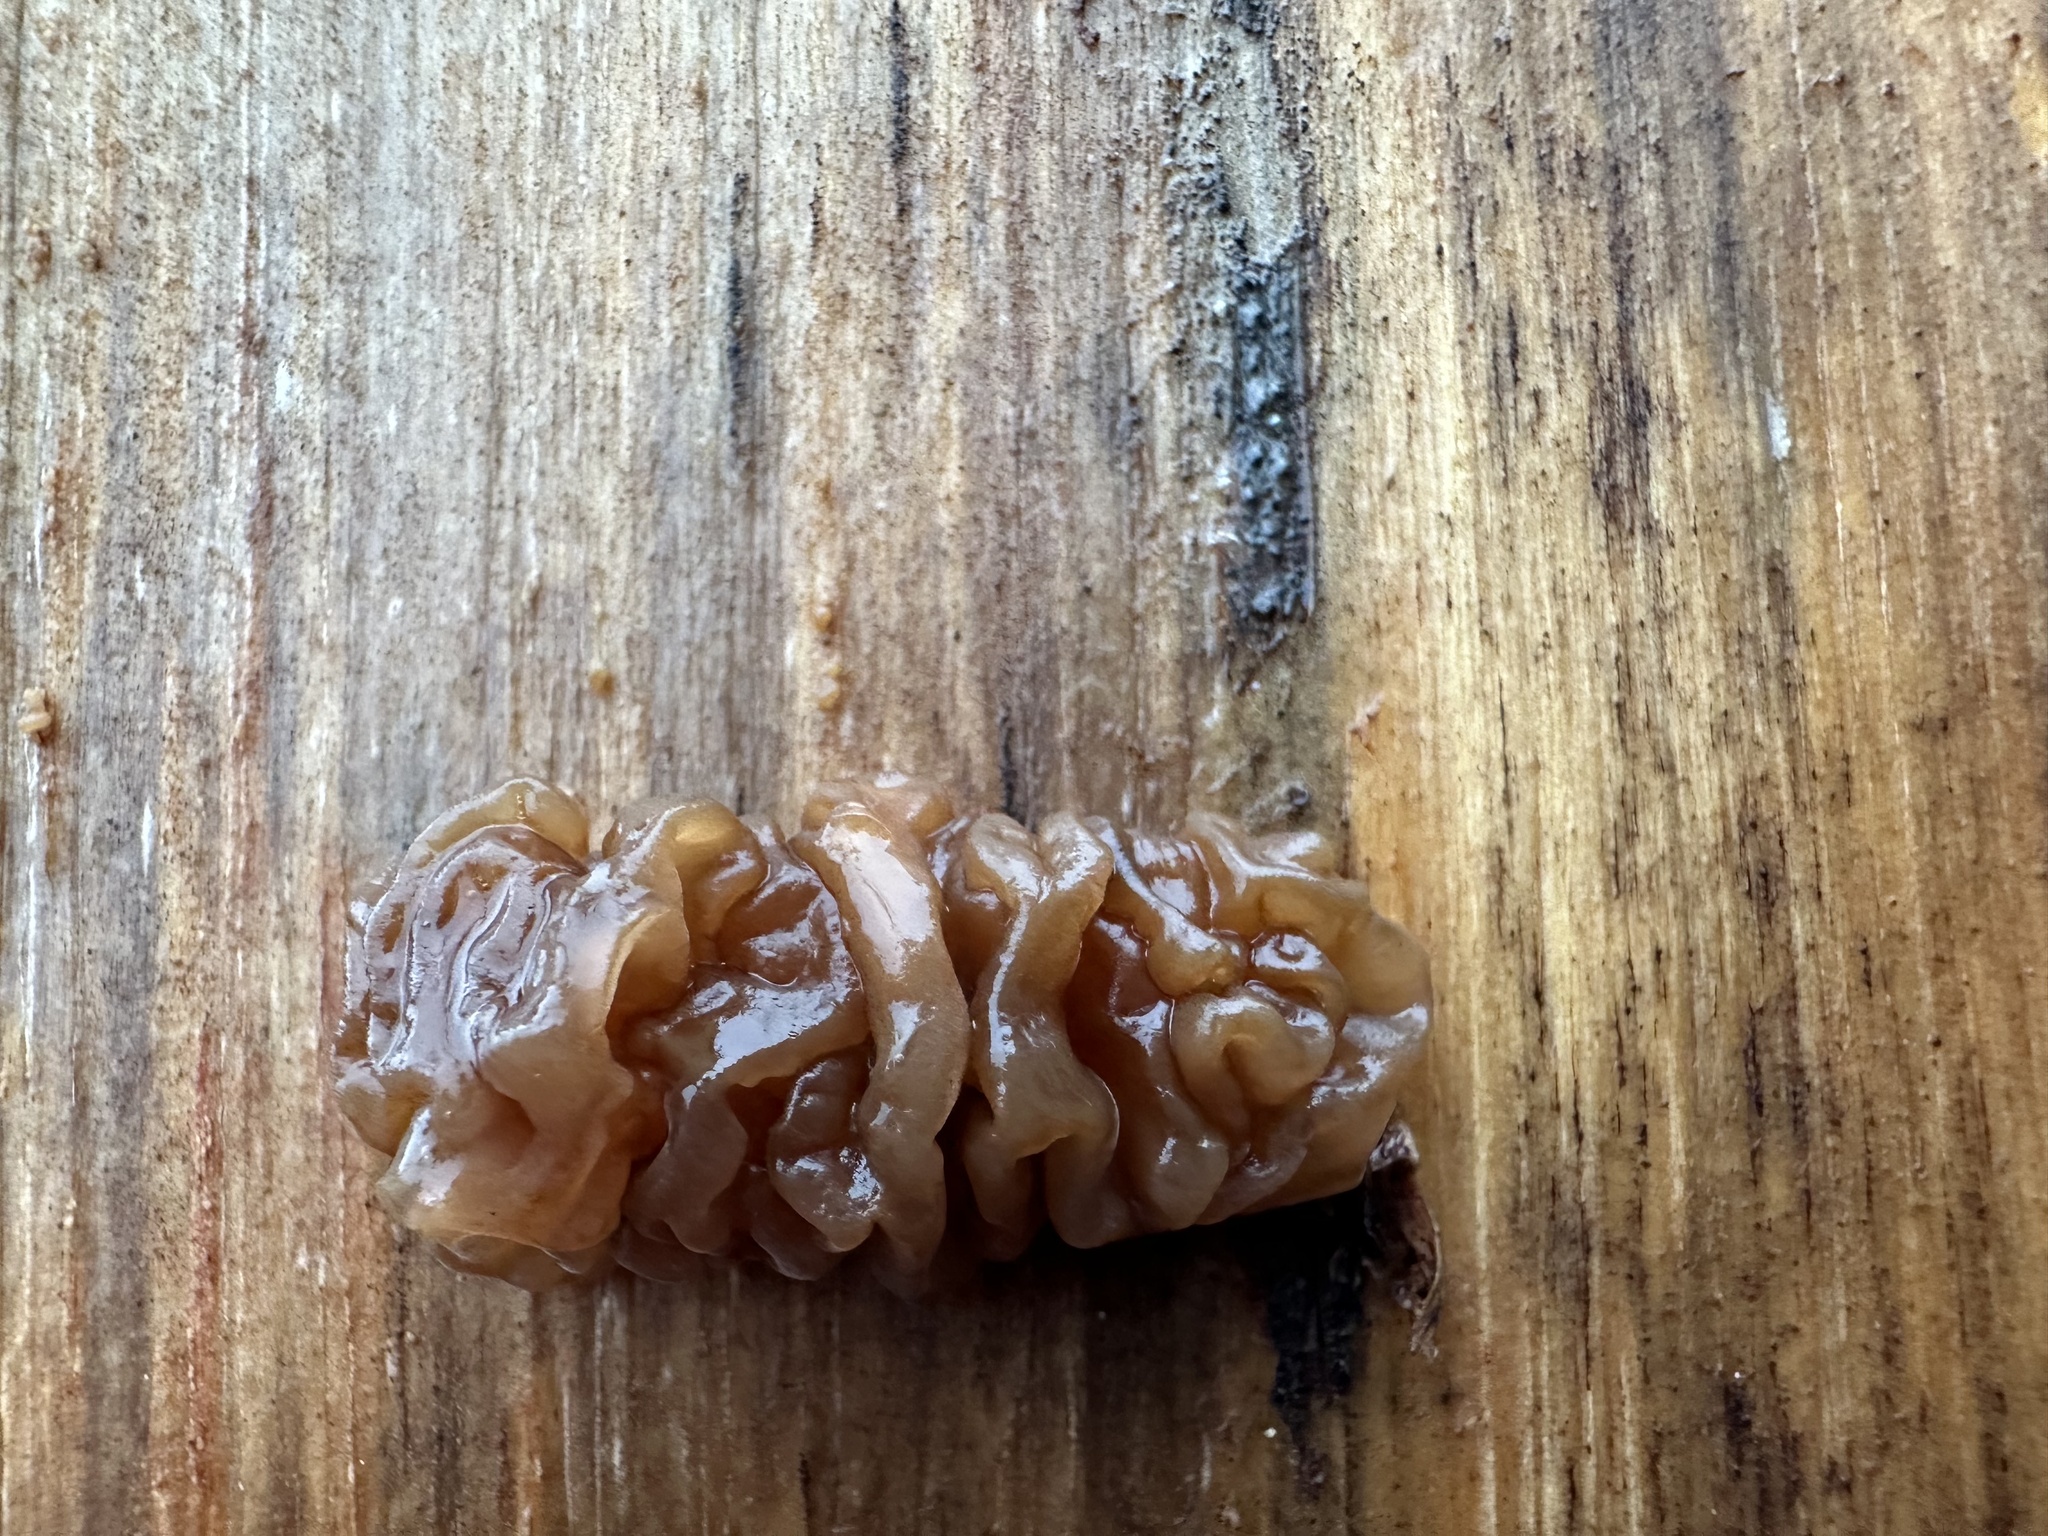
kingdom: Fungi
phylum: Basidiomycota
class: Agaricomycetes
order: Auriculariales
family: Auriculariaceae
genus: Exidia
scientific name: Exidia saccharina
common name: Pine jelly
